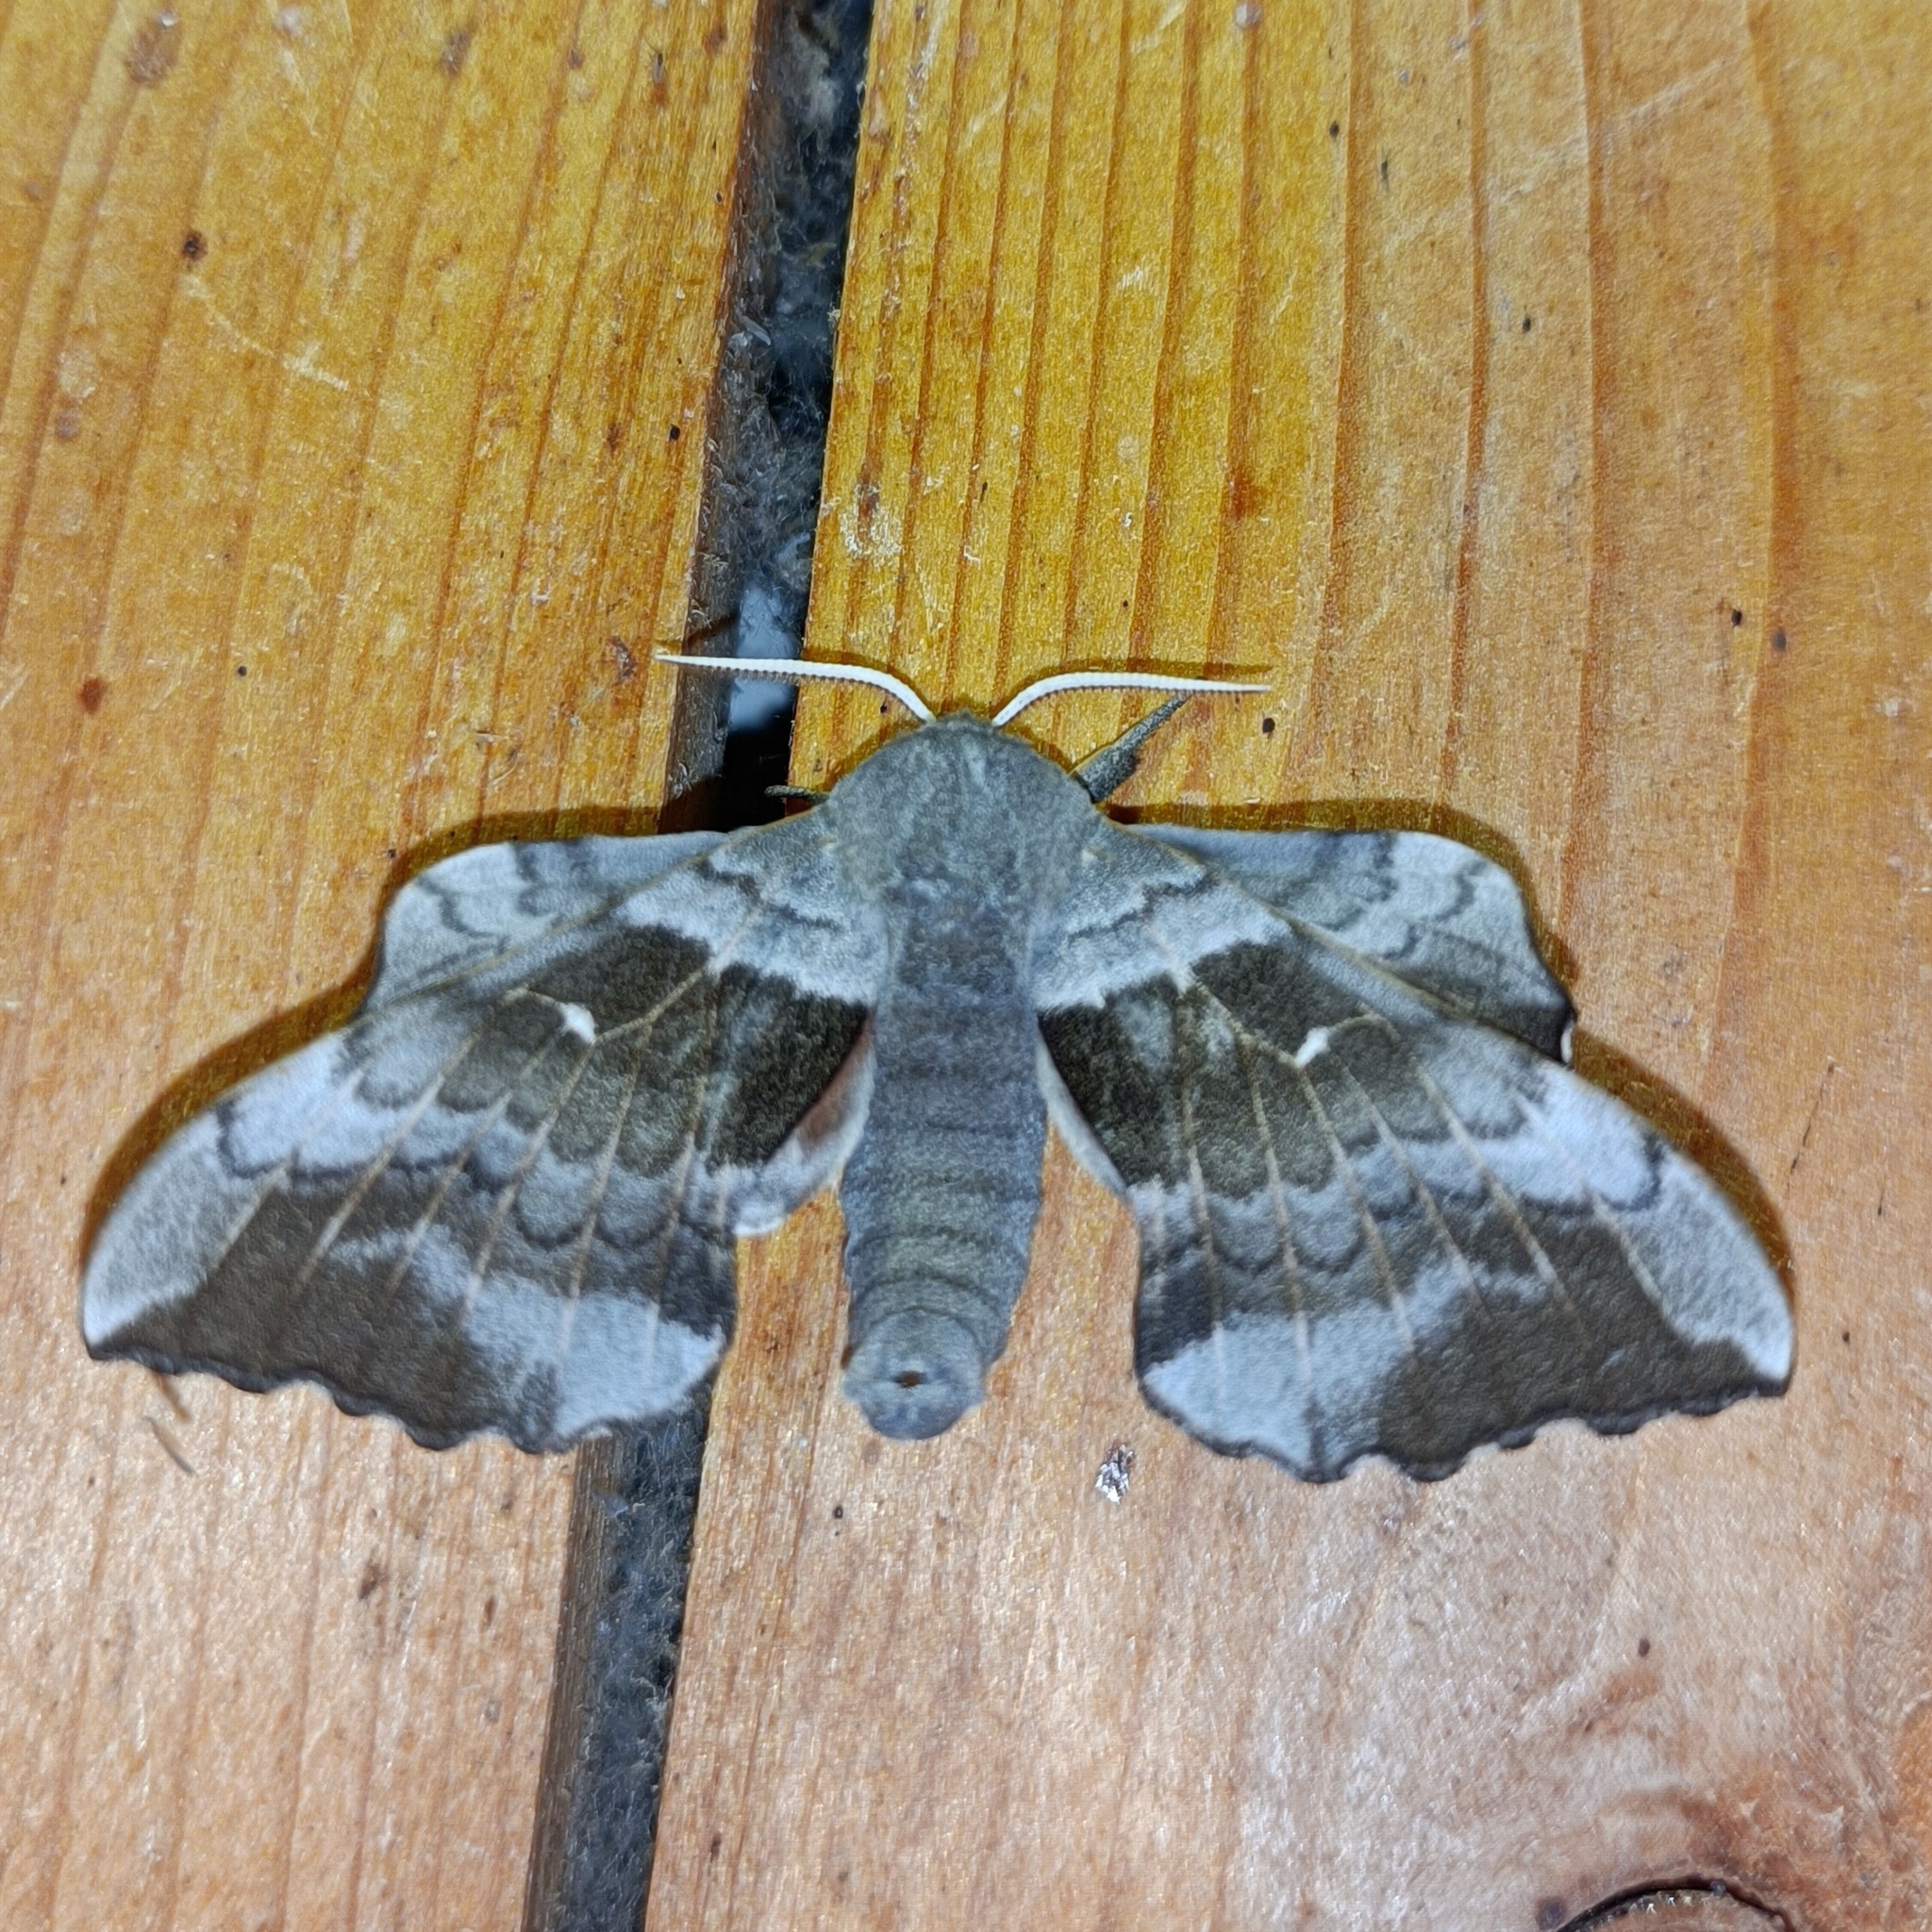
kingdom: Animalia
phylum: Arthropoda
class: Insecta
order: Lepidoptera
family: Sphingidae
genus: Laothoe
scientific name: Laothoe populi
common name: Poplar hawk-moth
